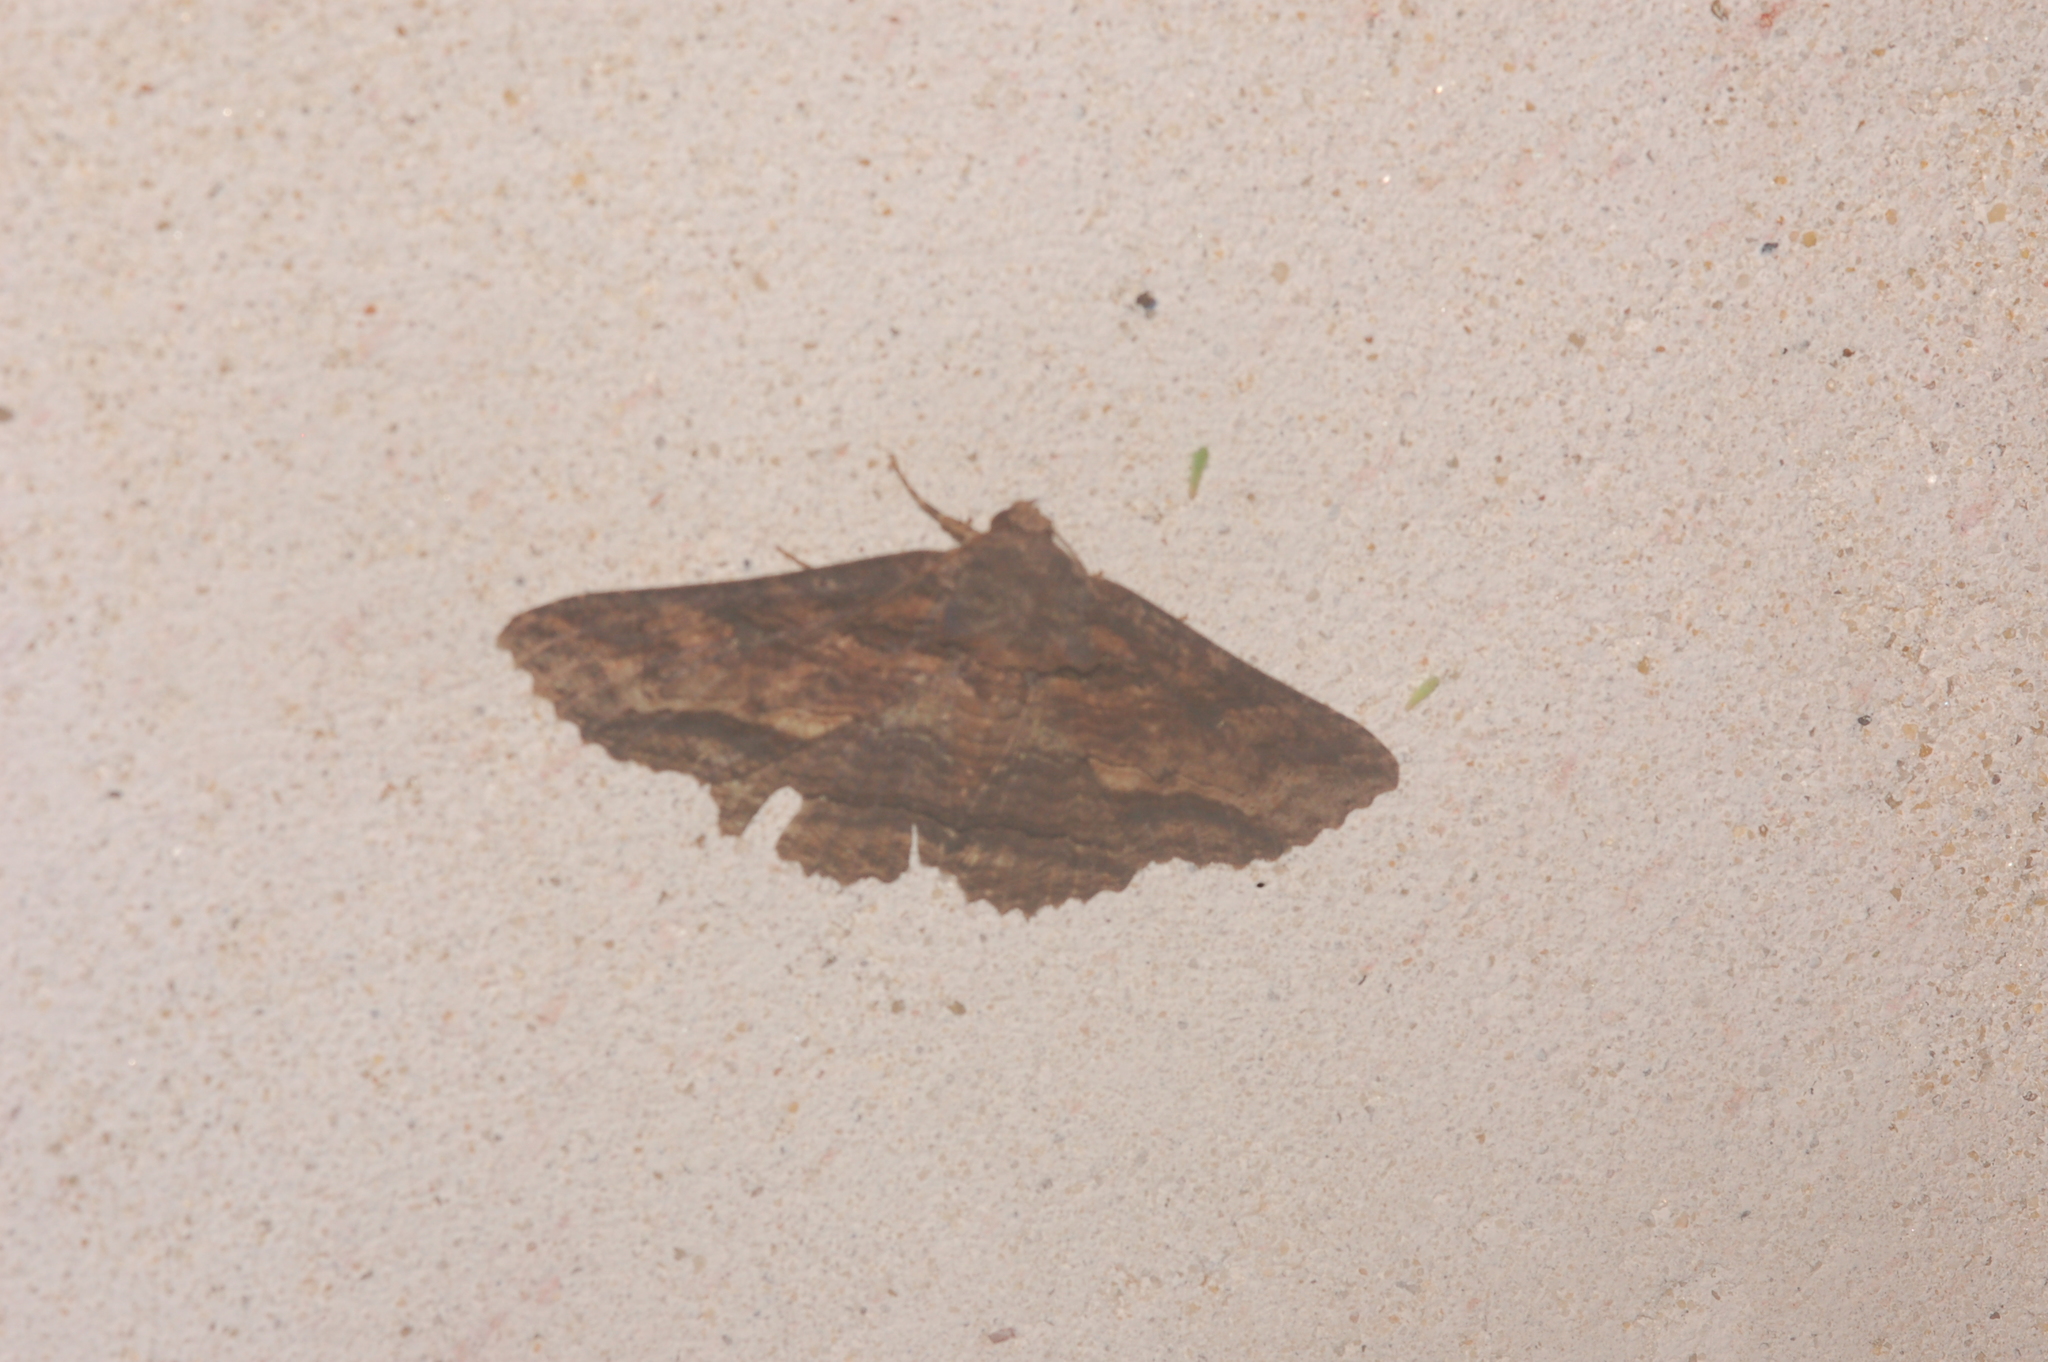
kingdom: Animalia
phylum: Arthropoda
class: Insecta
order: Lepidoptera
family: Erebidae
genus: Zale
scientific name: Zale lunata
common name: Lunate zale moth
